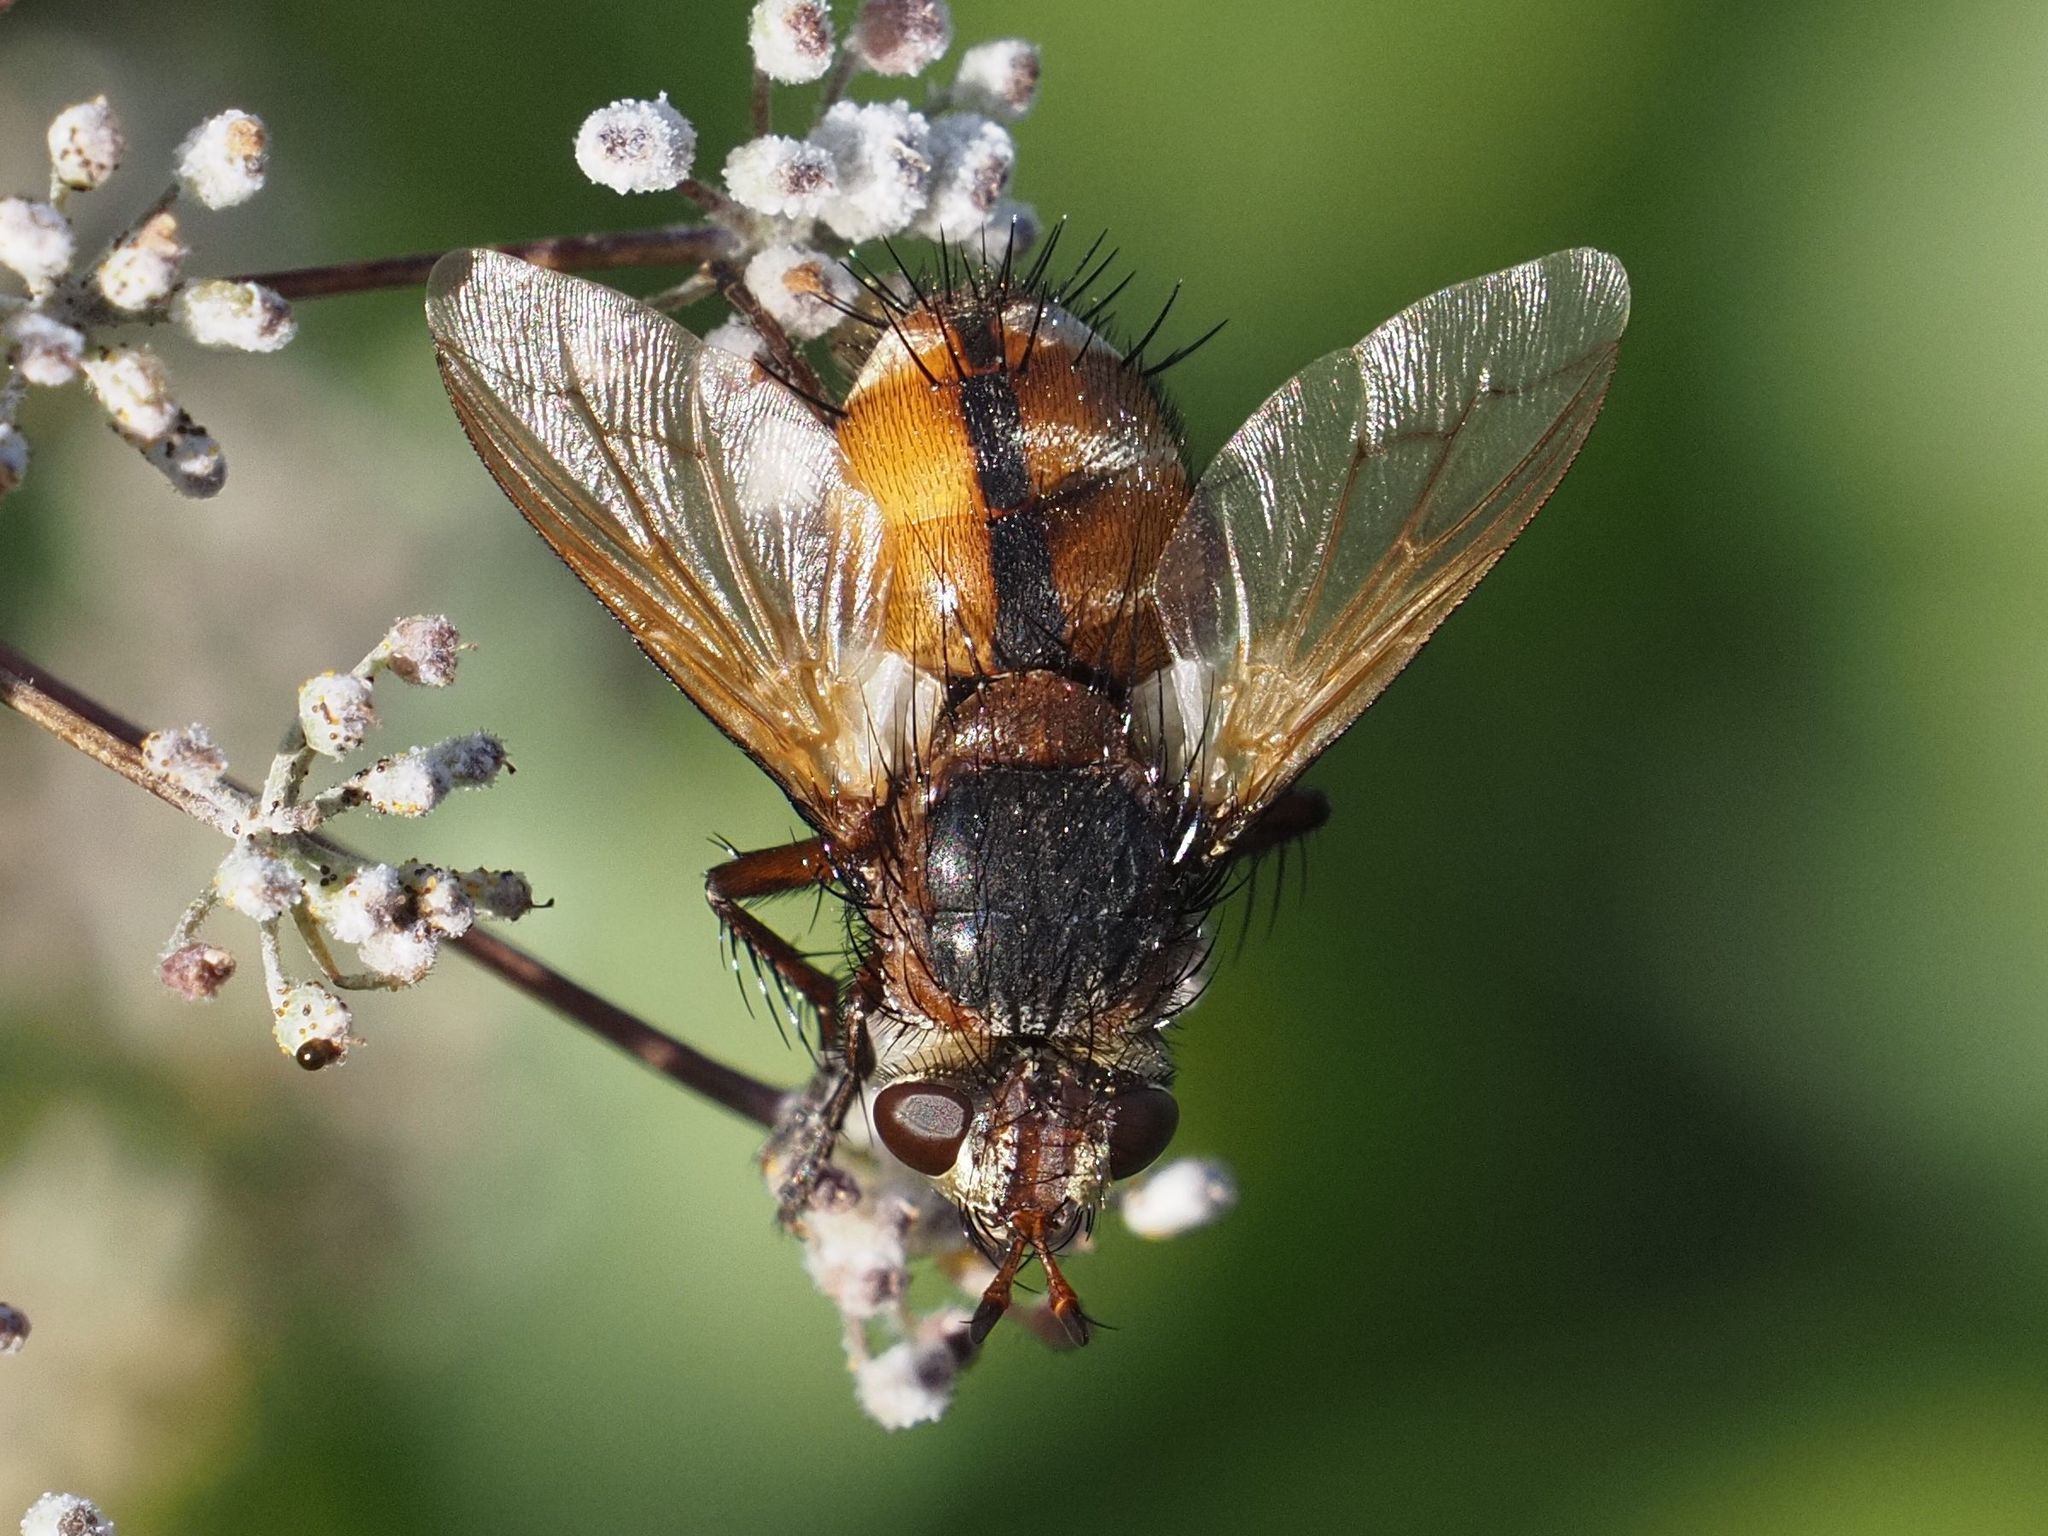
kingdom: Animalia
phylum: Arthropoda
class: Insecta
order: Diptera
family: Tachinidae
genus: Tachina
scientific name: Tachina fera
